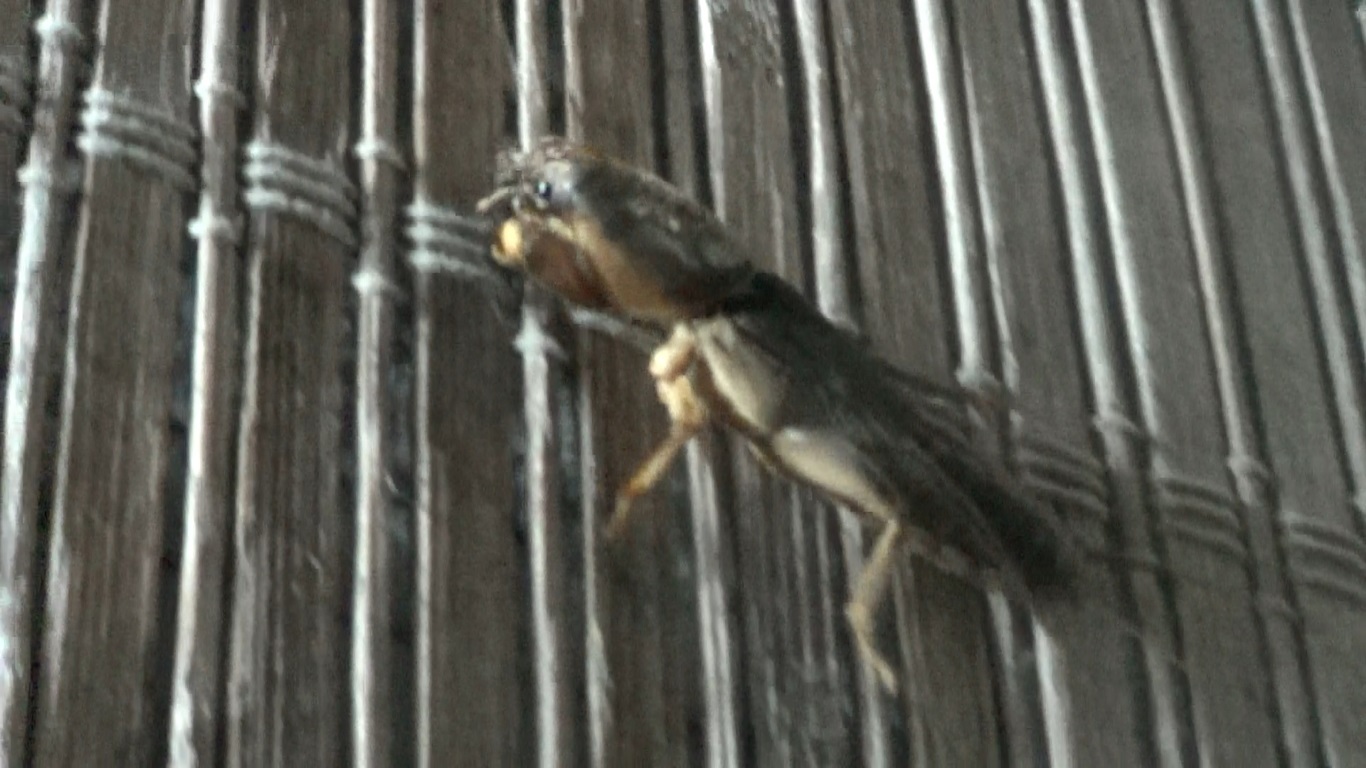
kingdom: Animalia
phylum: Arthropoda
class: Insecta
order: Orthoptera
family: Gryllotalpidae
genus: Gryllotalpa
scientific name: Gryllotalpa quindecim
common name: Fifteen-chromosome mole-cricket
